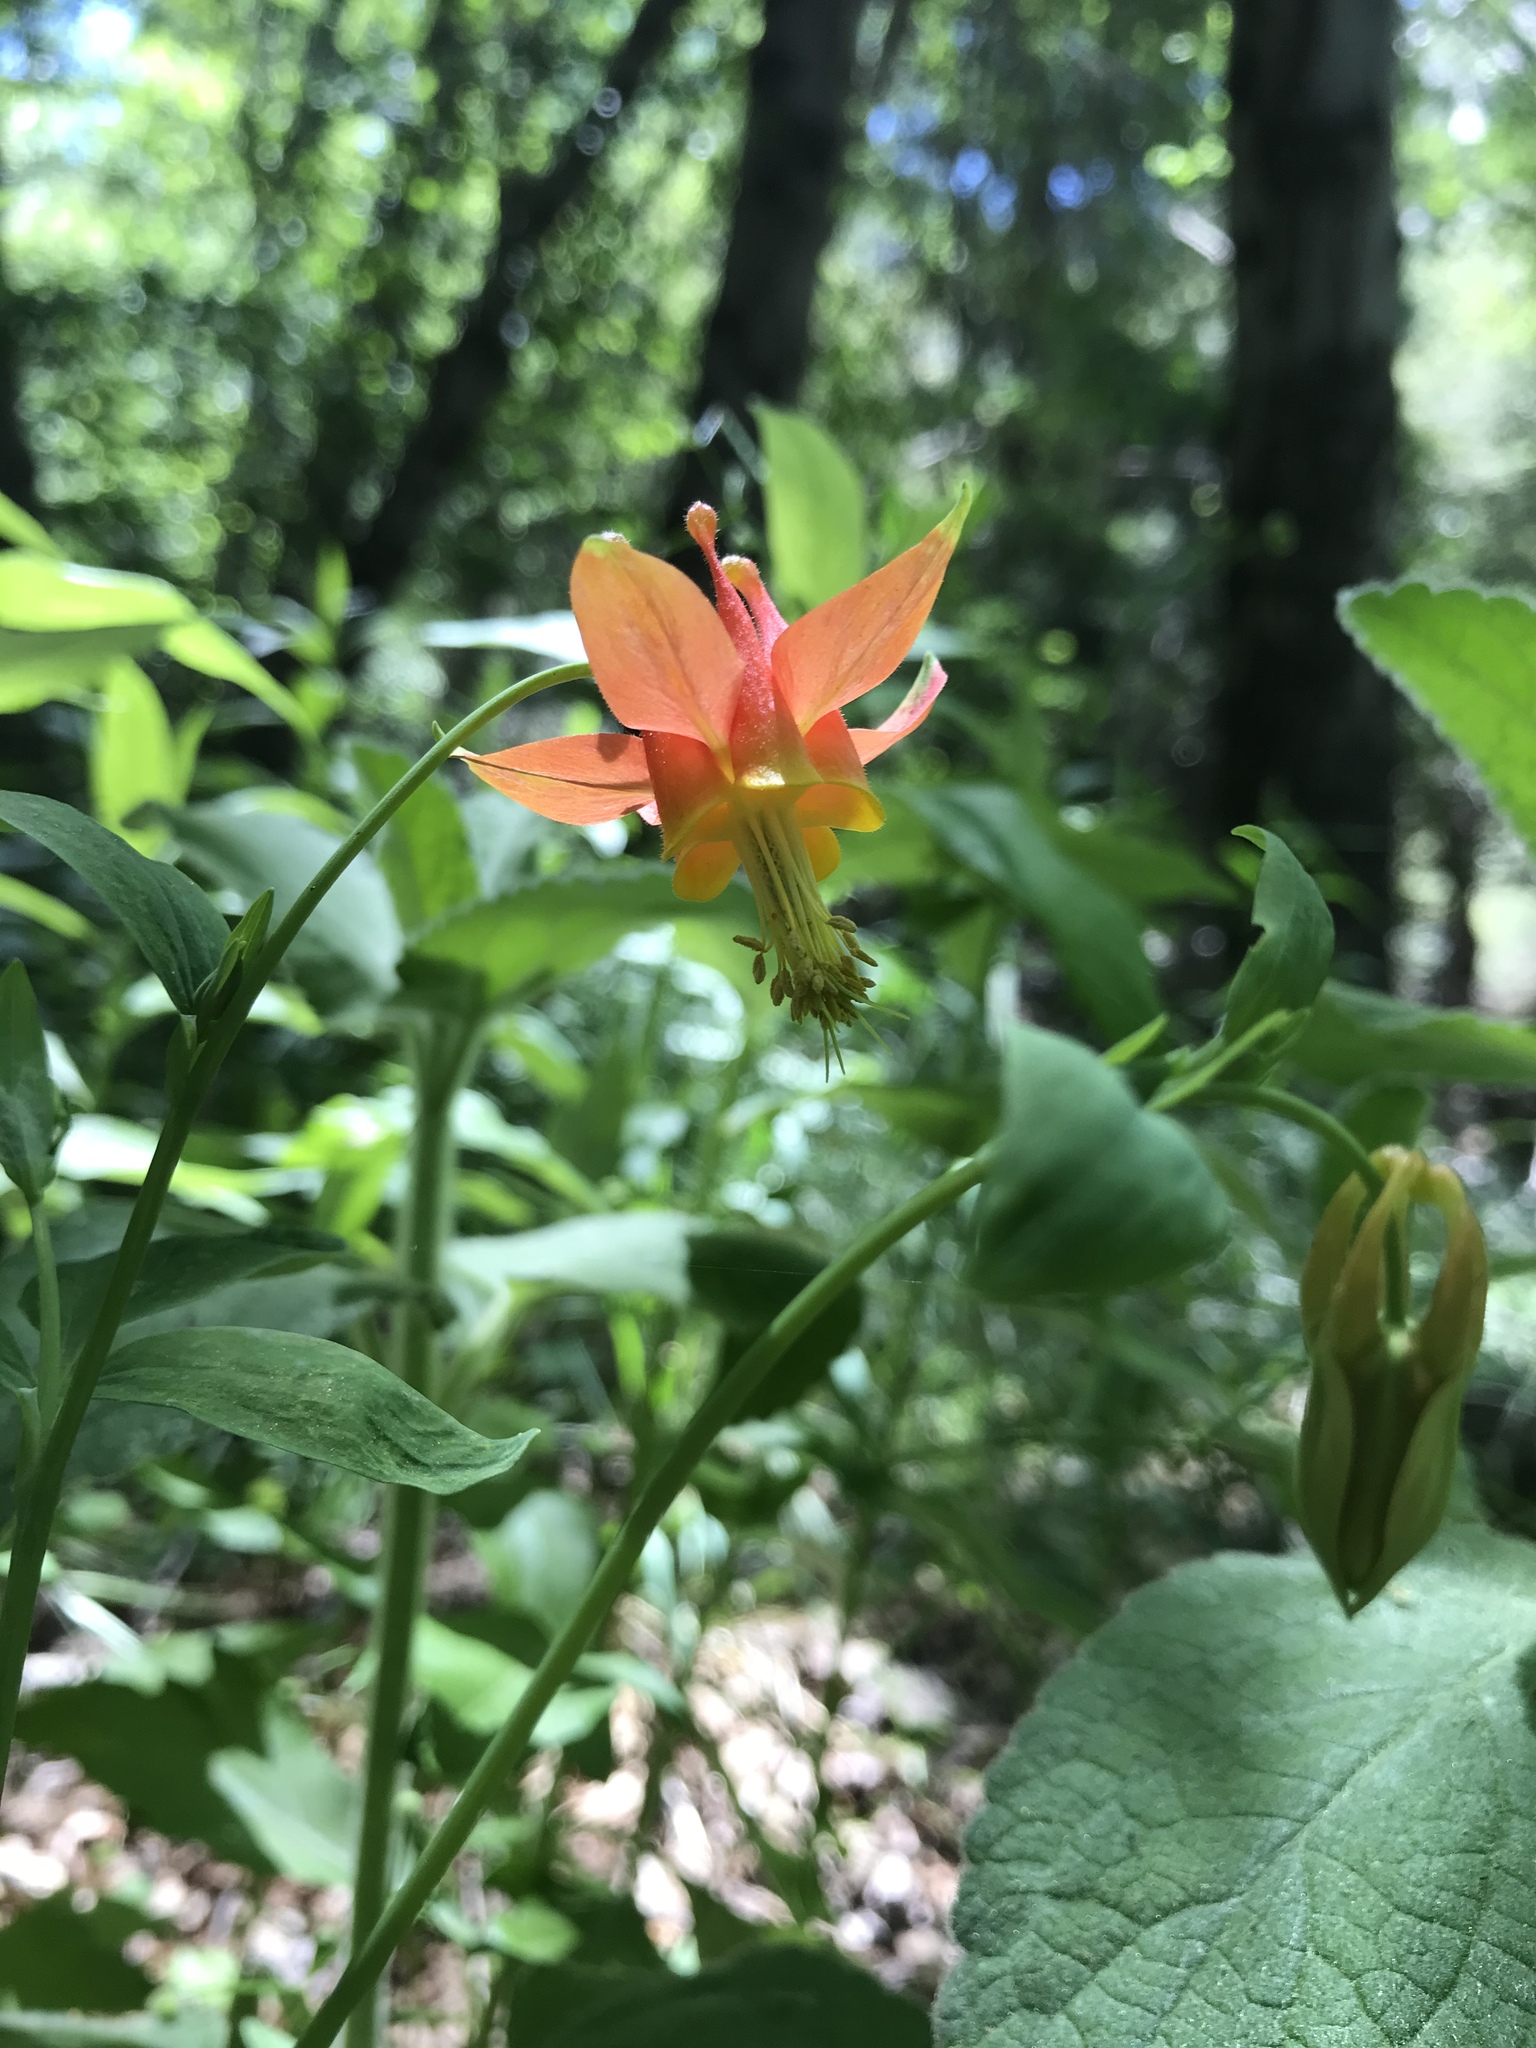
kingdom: Plantae
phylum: Tracheophyta
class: Magnoliopsida
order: Ranunculales
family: Ranunculaceae
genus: Aquilegia
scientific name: Aquilegia formosa
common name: Sitka columbine
